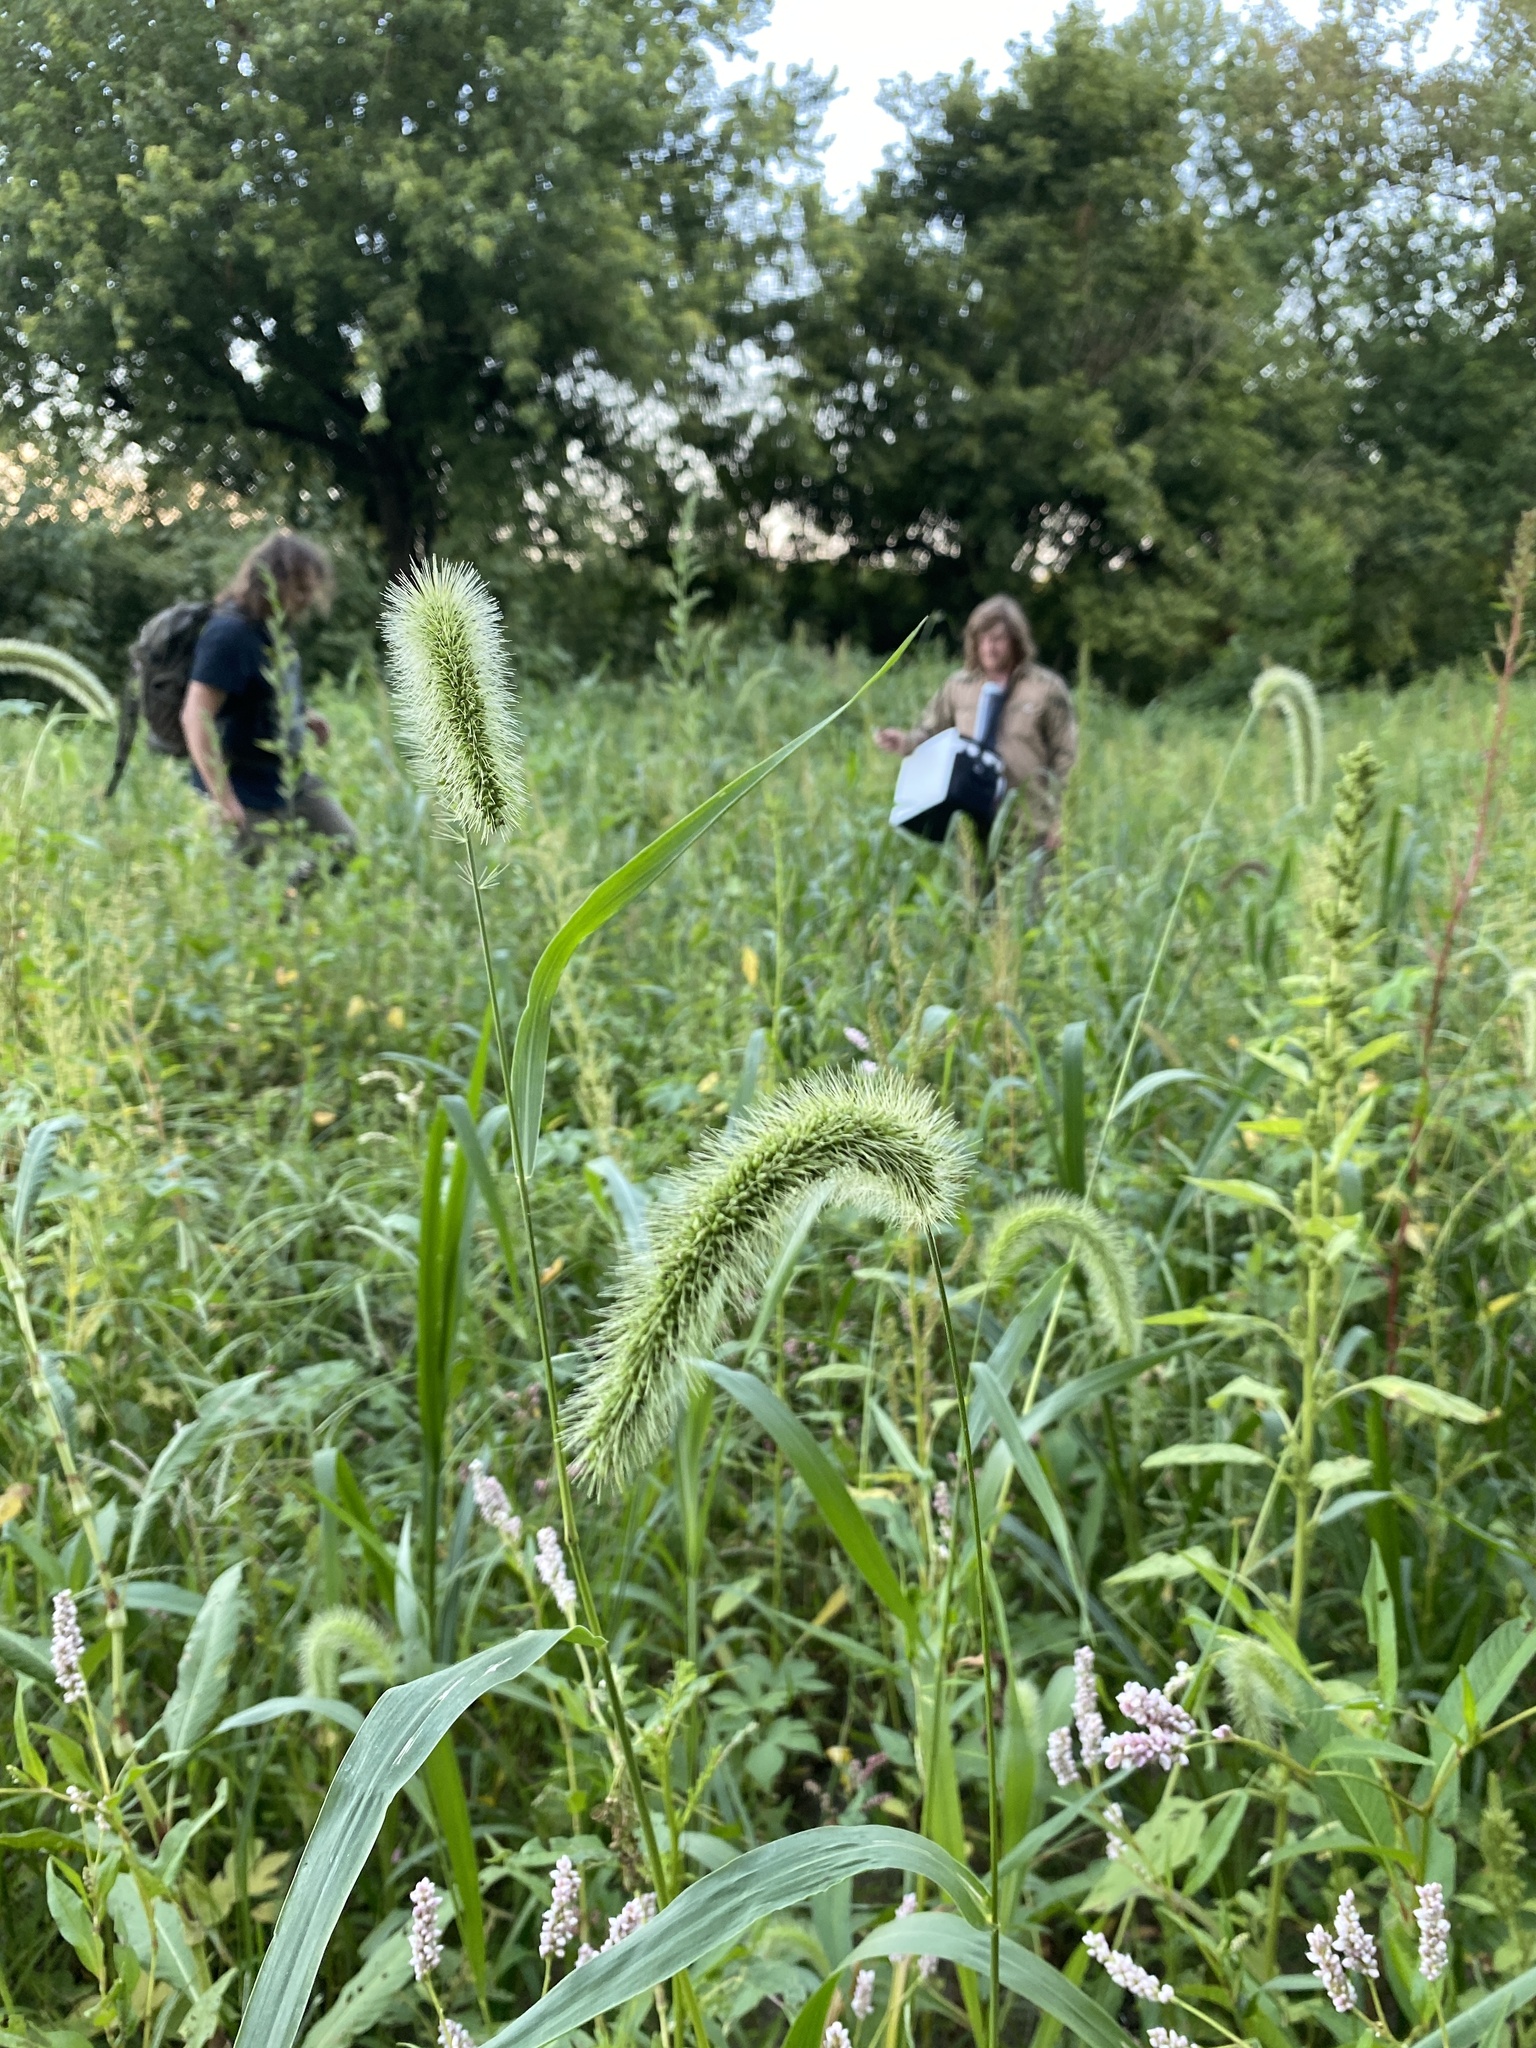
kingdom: Plantae
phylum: Tracheophyta
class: Liliopsida
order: Poales
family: Poaceae
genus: Setaria
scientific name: Setaria faberi
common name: Nodding bristle-grass
